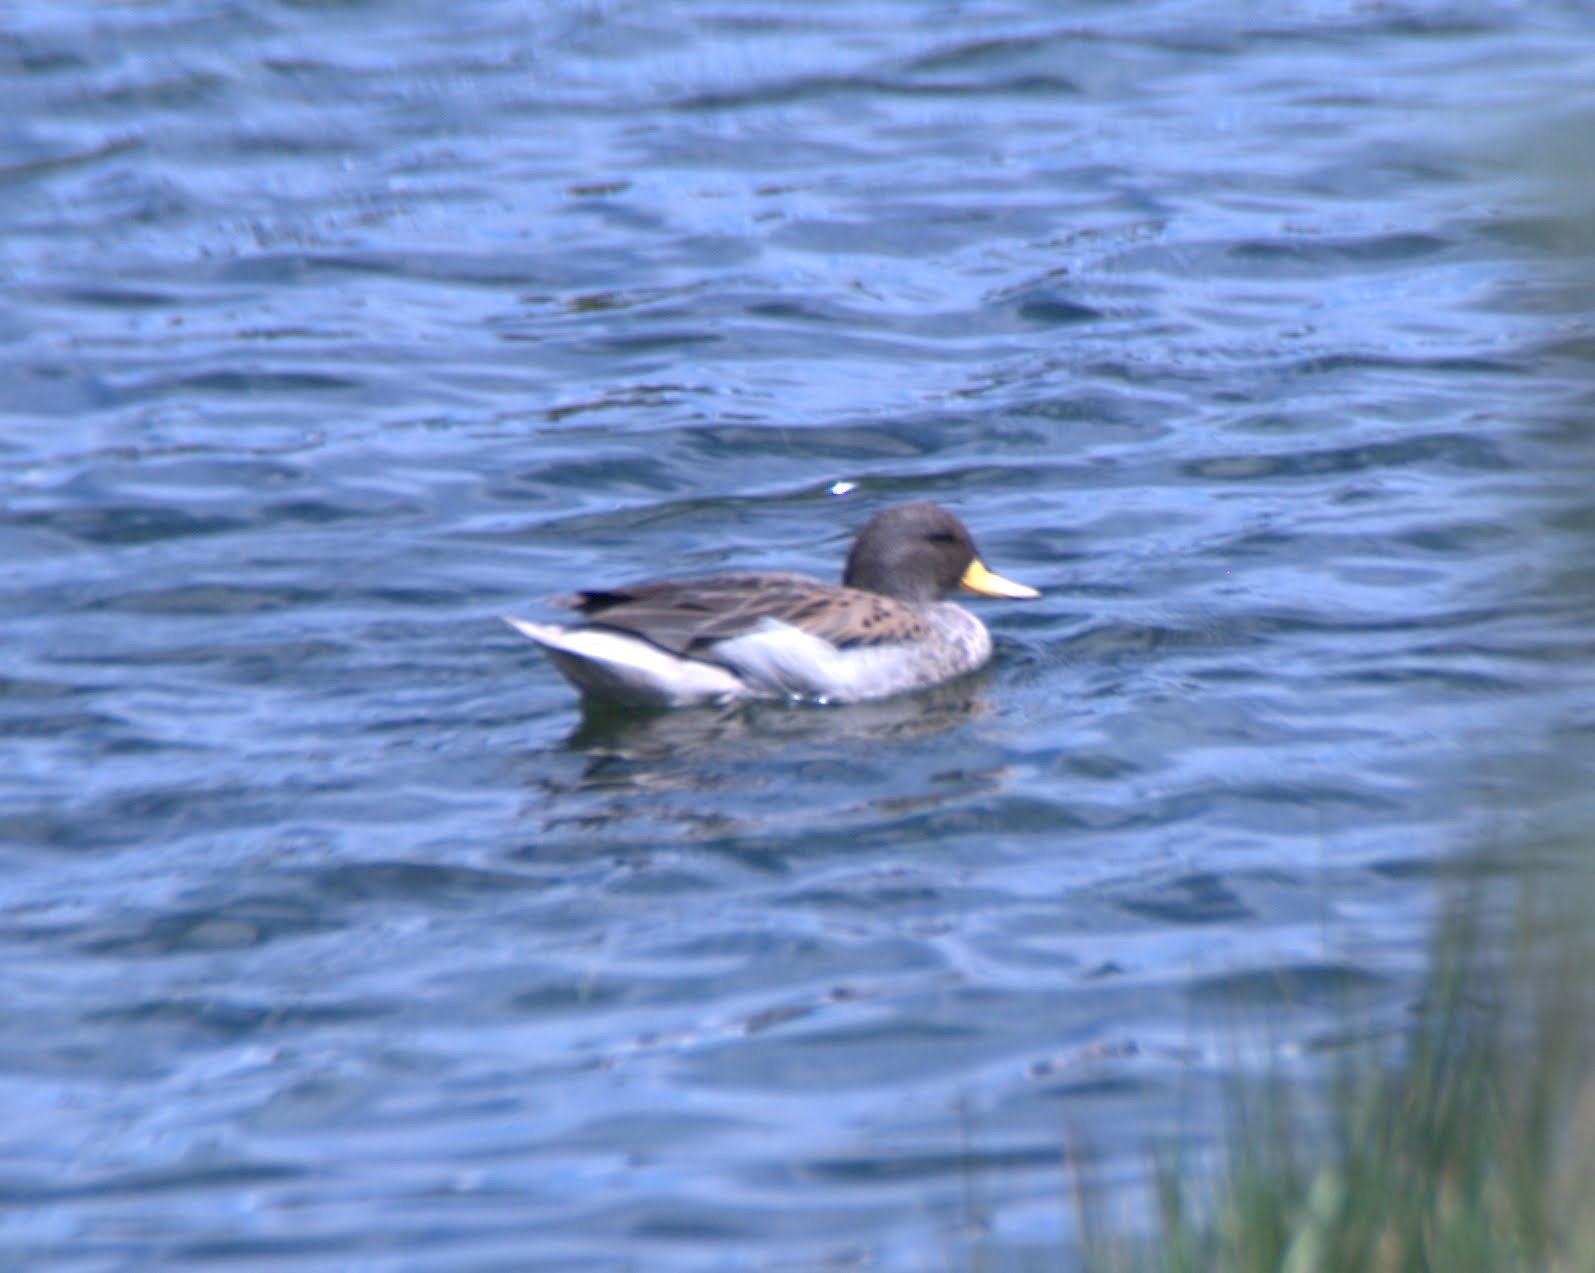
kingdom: Animalia
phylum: Chordata
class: Aves
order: Anseriformes
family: Anatidae
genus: Anas
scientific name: Anas flavirostris
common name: Yellow-billed teal
